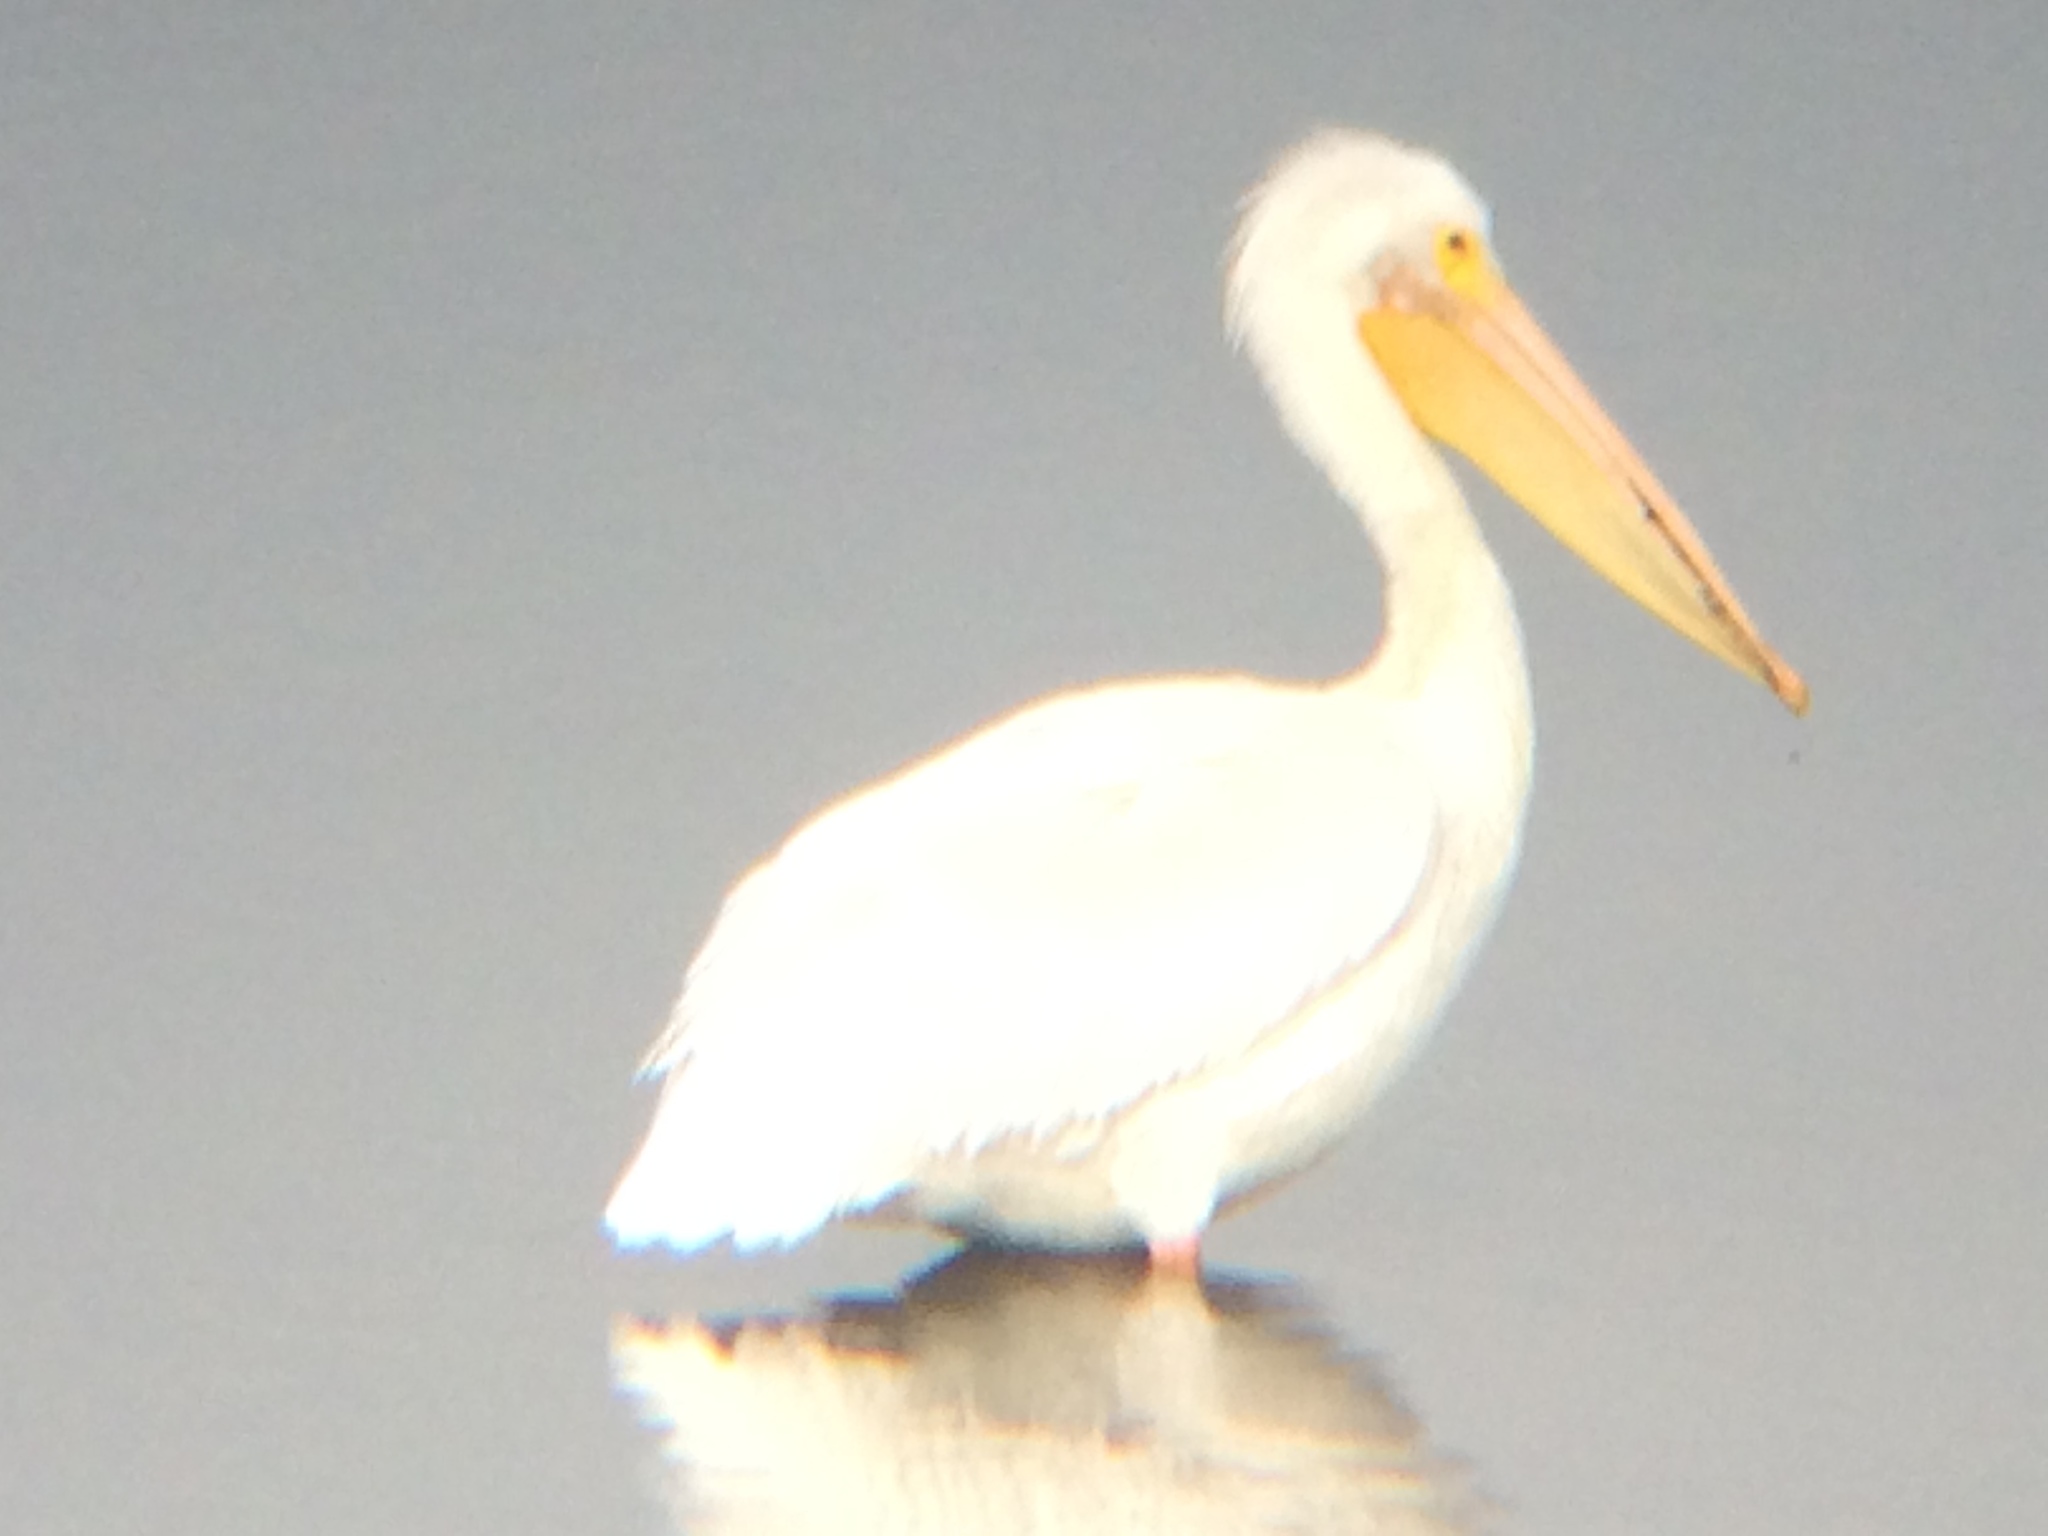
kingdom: Animalia
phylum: Chordata
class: Aves
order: Pelecaniformes
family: Pelecanidae
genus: Pelecanus
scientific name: Pelecanus erythrorhynchos
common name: American white pelican
